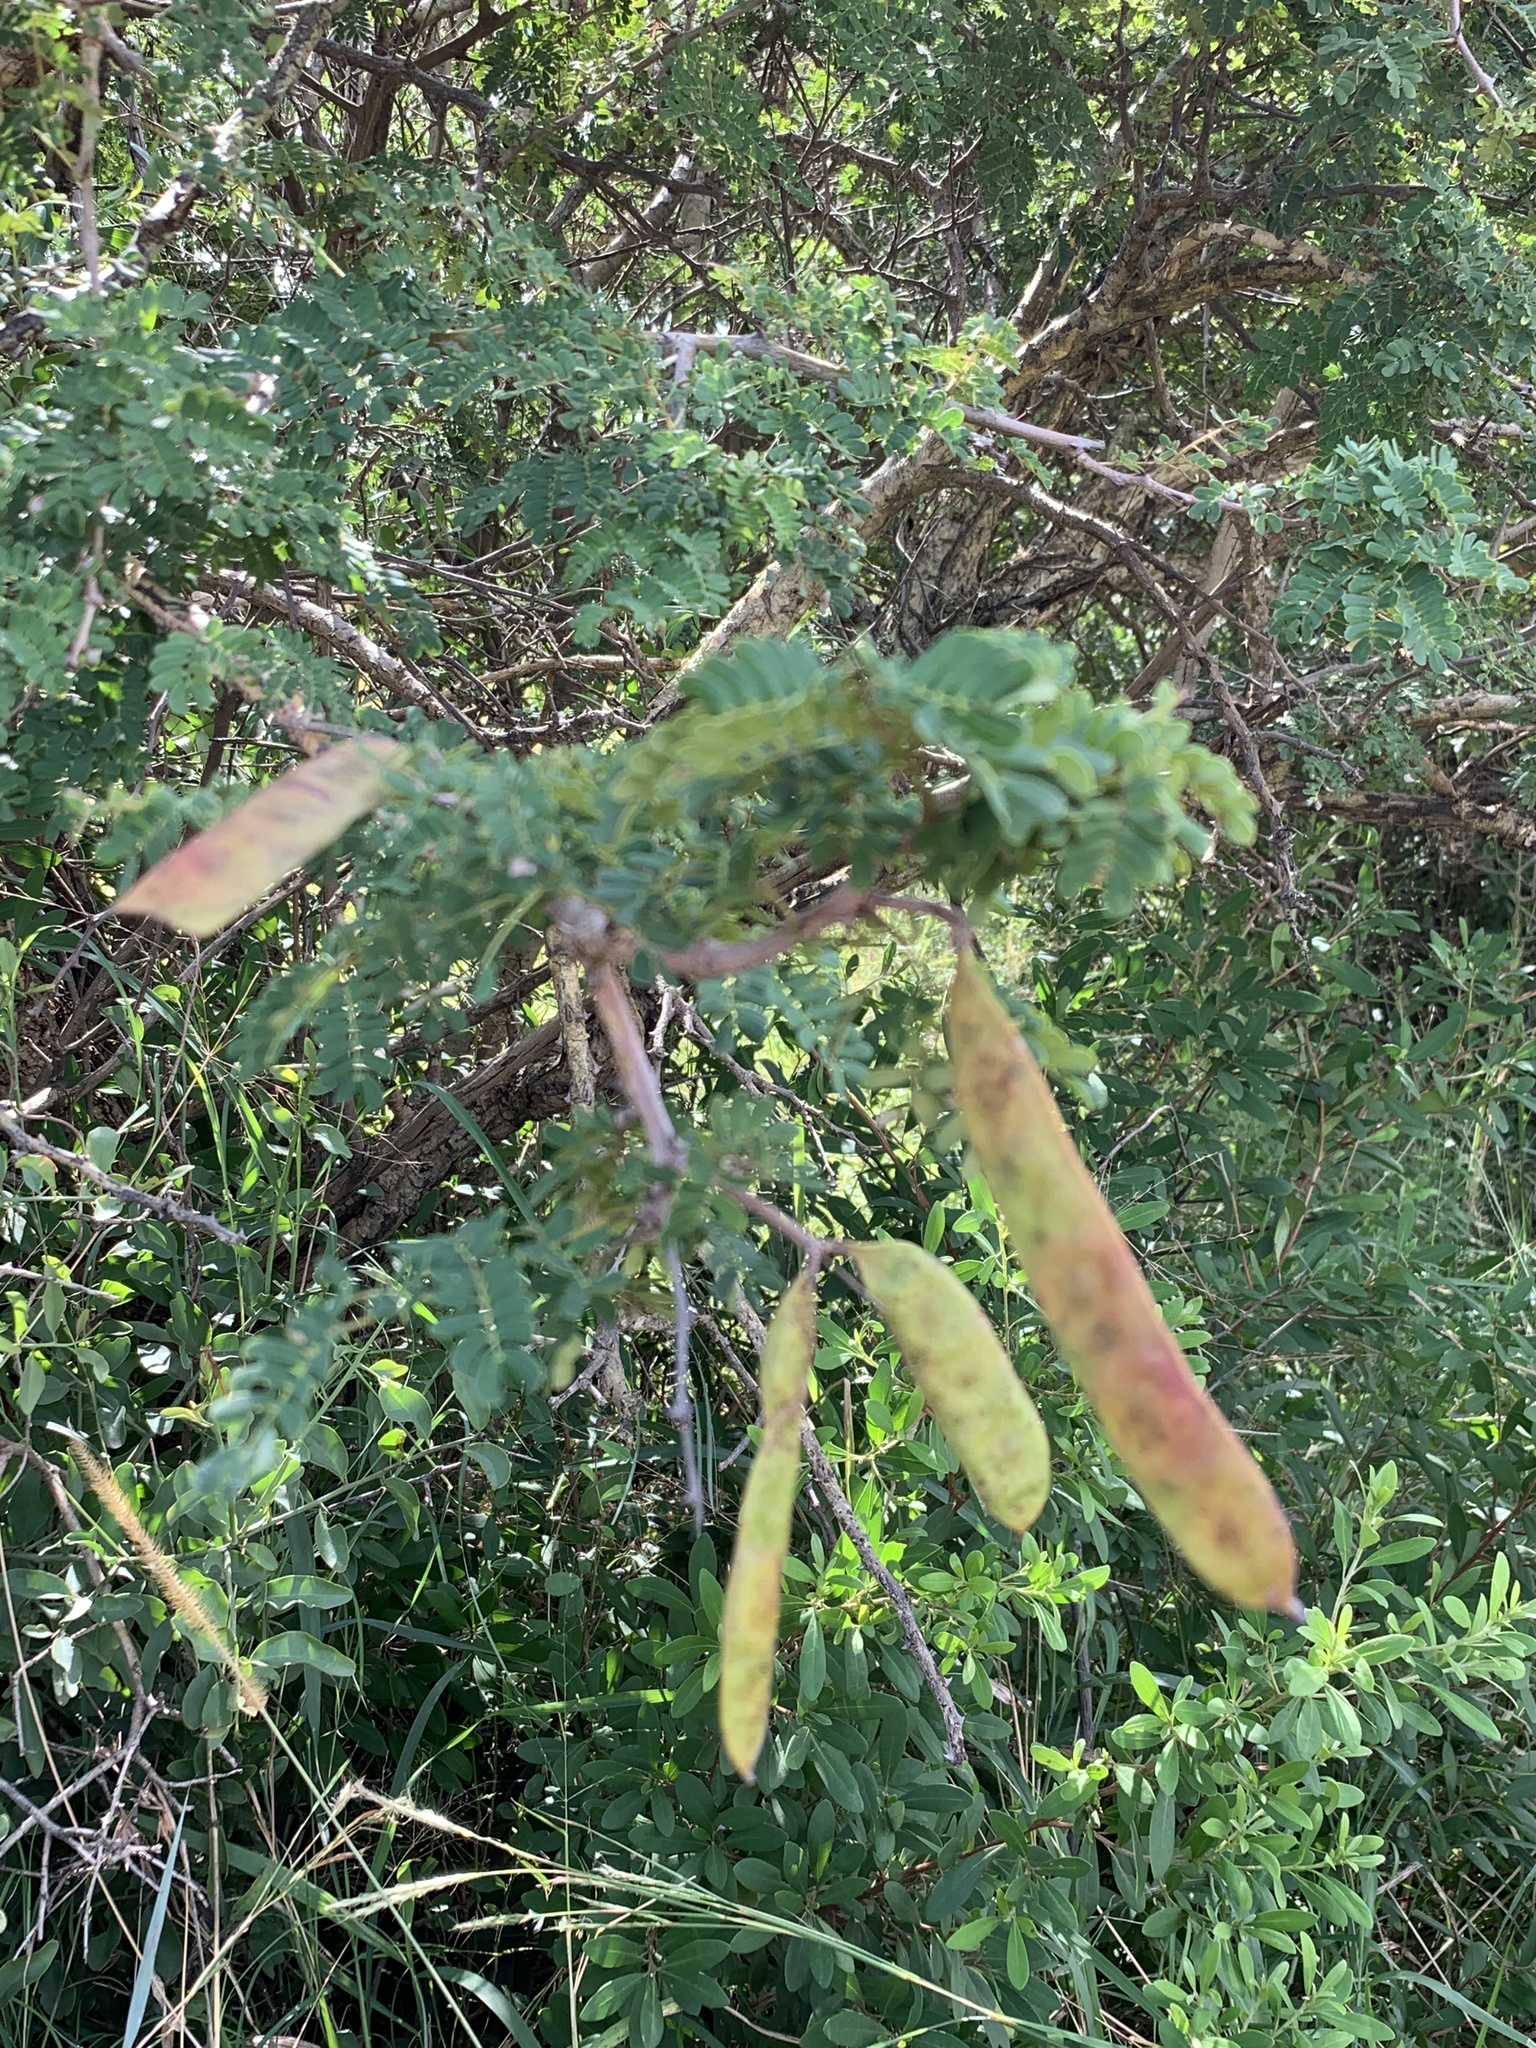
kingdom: Plantae
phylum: Tracheophyta
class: Magnoliopsida
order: Fabales
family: Fabaceae
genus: Senegalia
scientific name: Senegalia burkei
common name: Black monkey thorn
